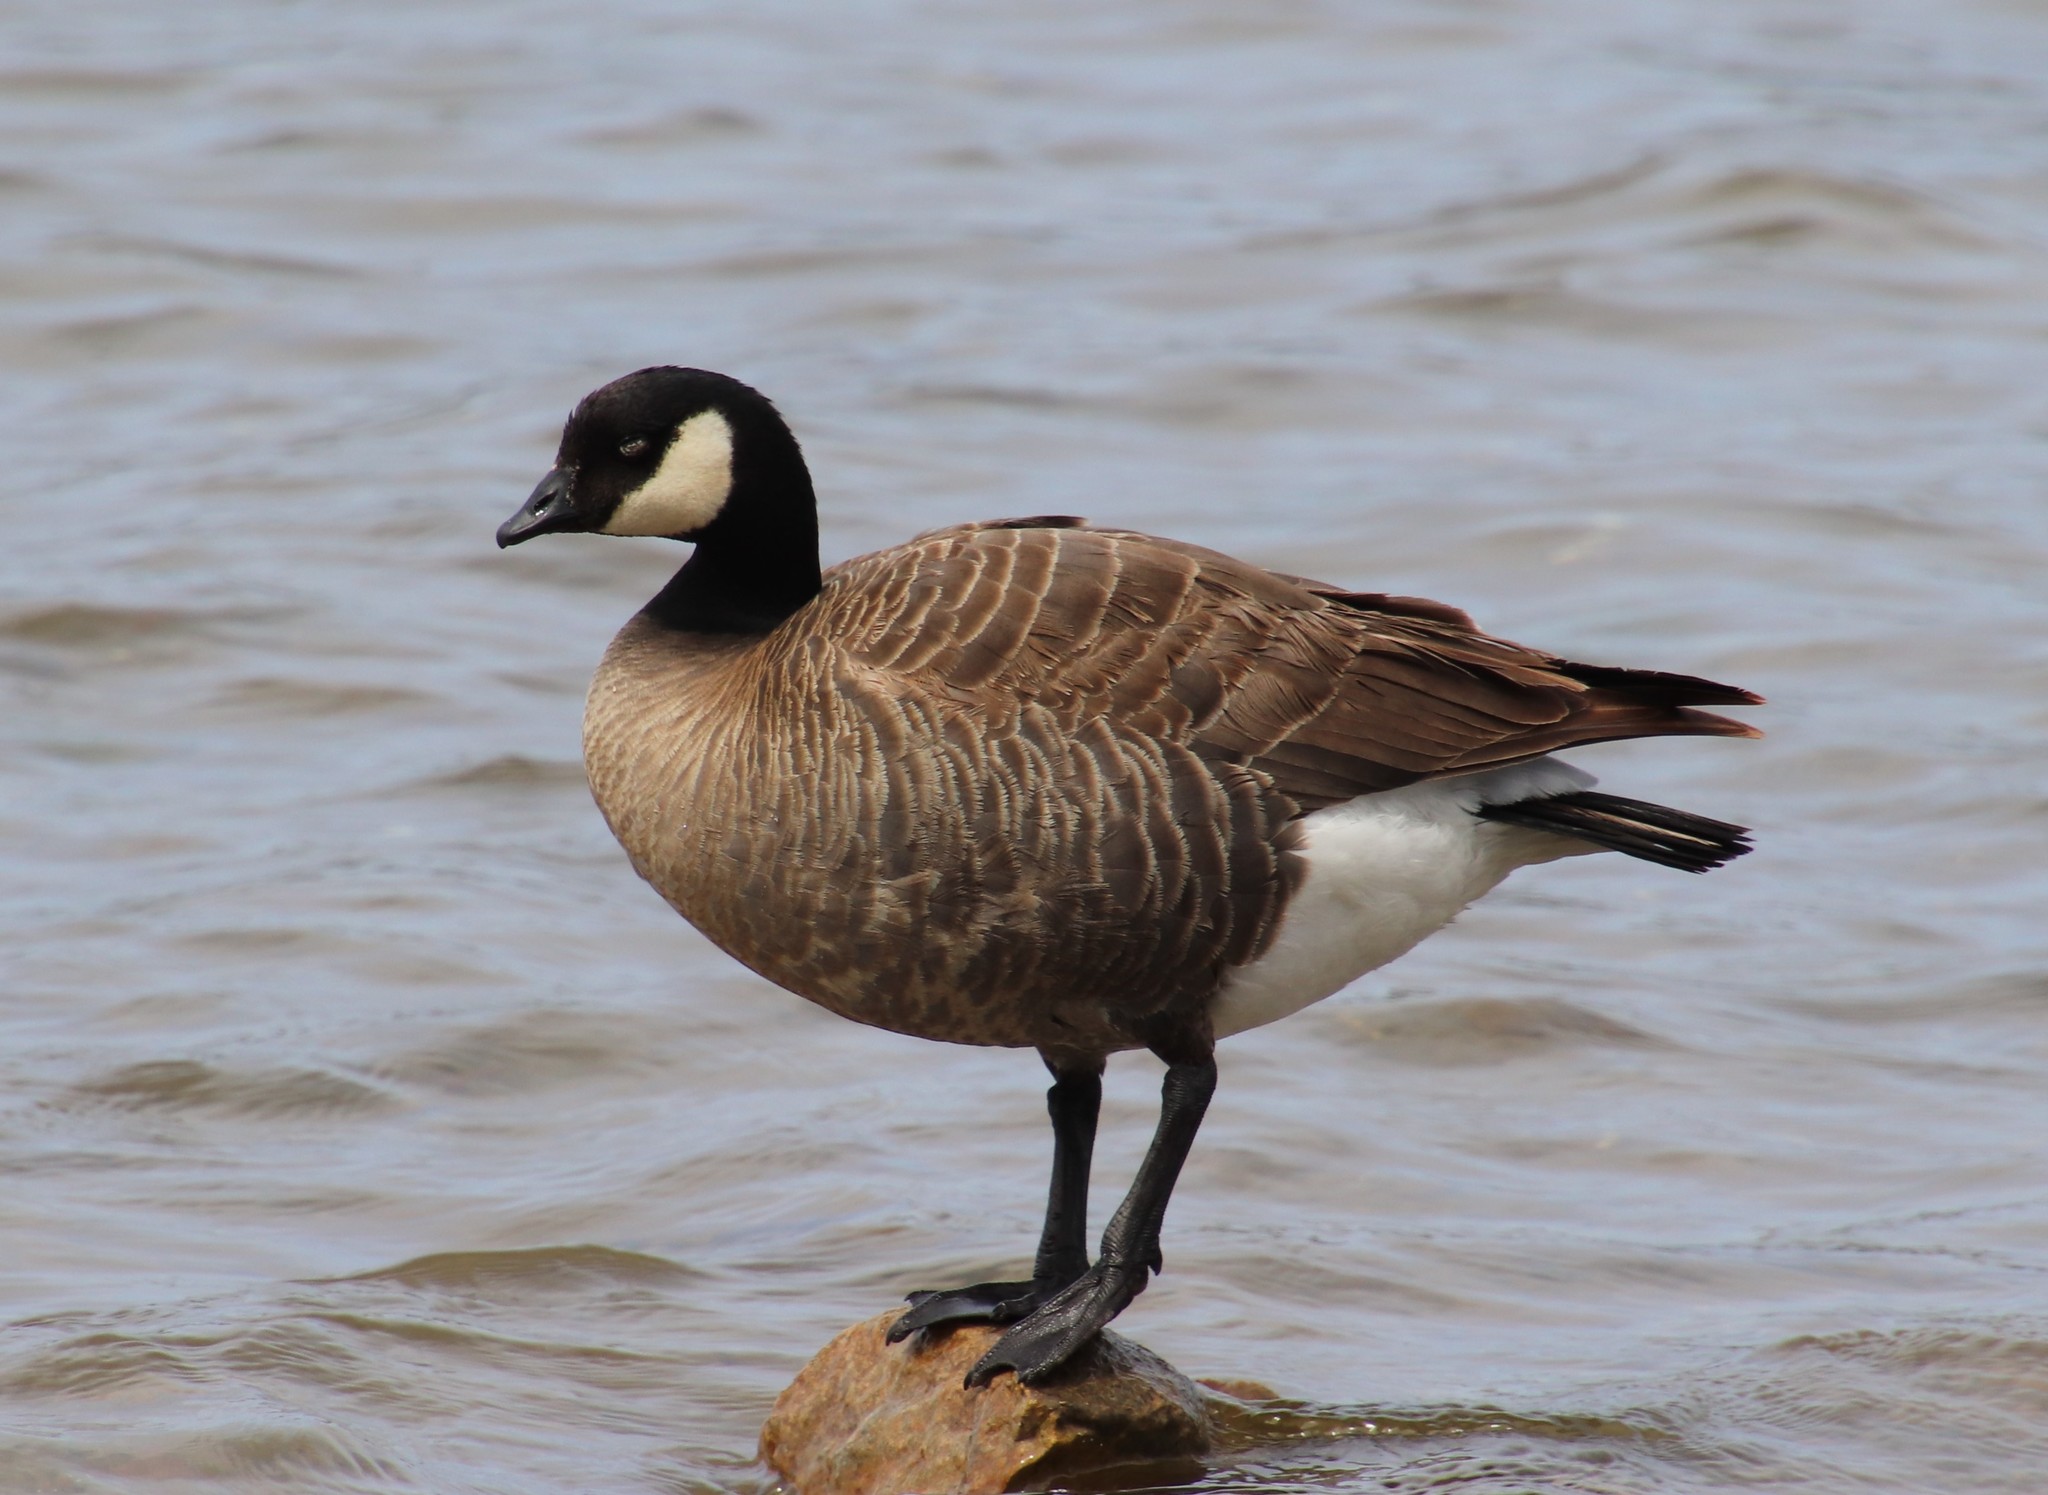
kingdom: Animalia
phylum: Chordata
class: Aves
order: Anseriformes
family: Anatidae
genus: Branta
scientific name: Branta hutchinsii
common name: Cackling goose
